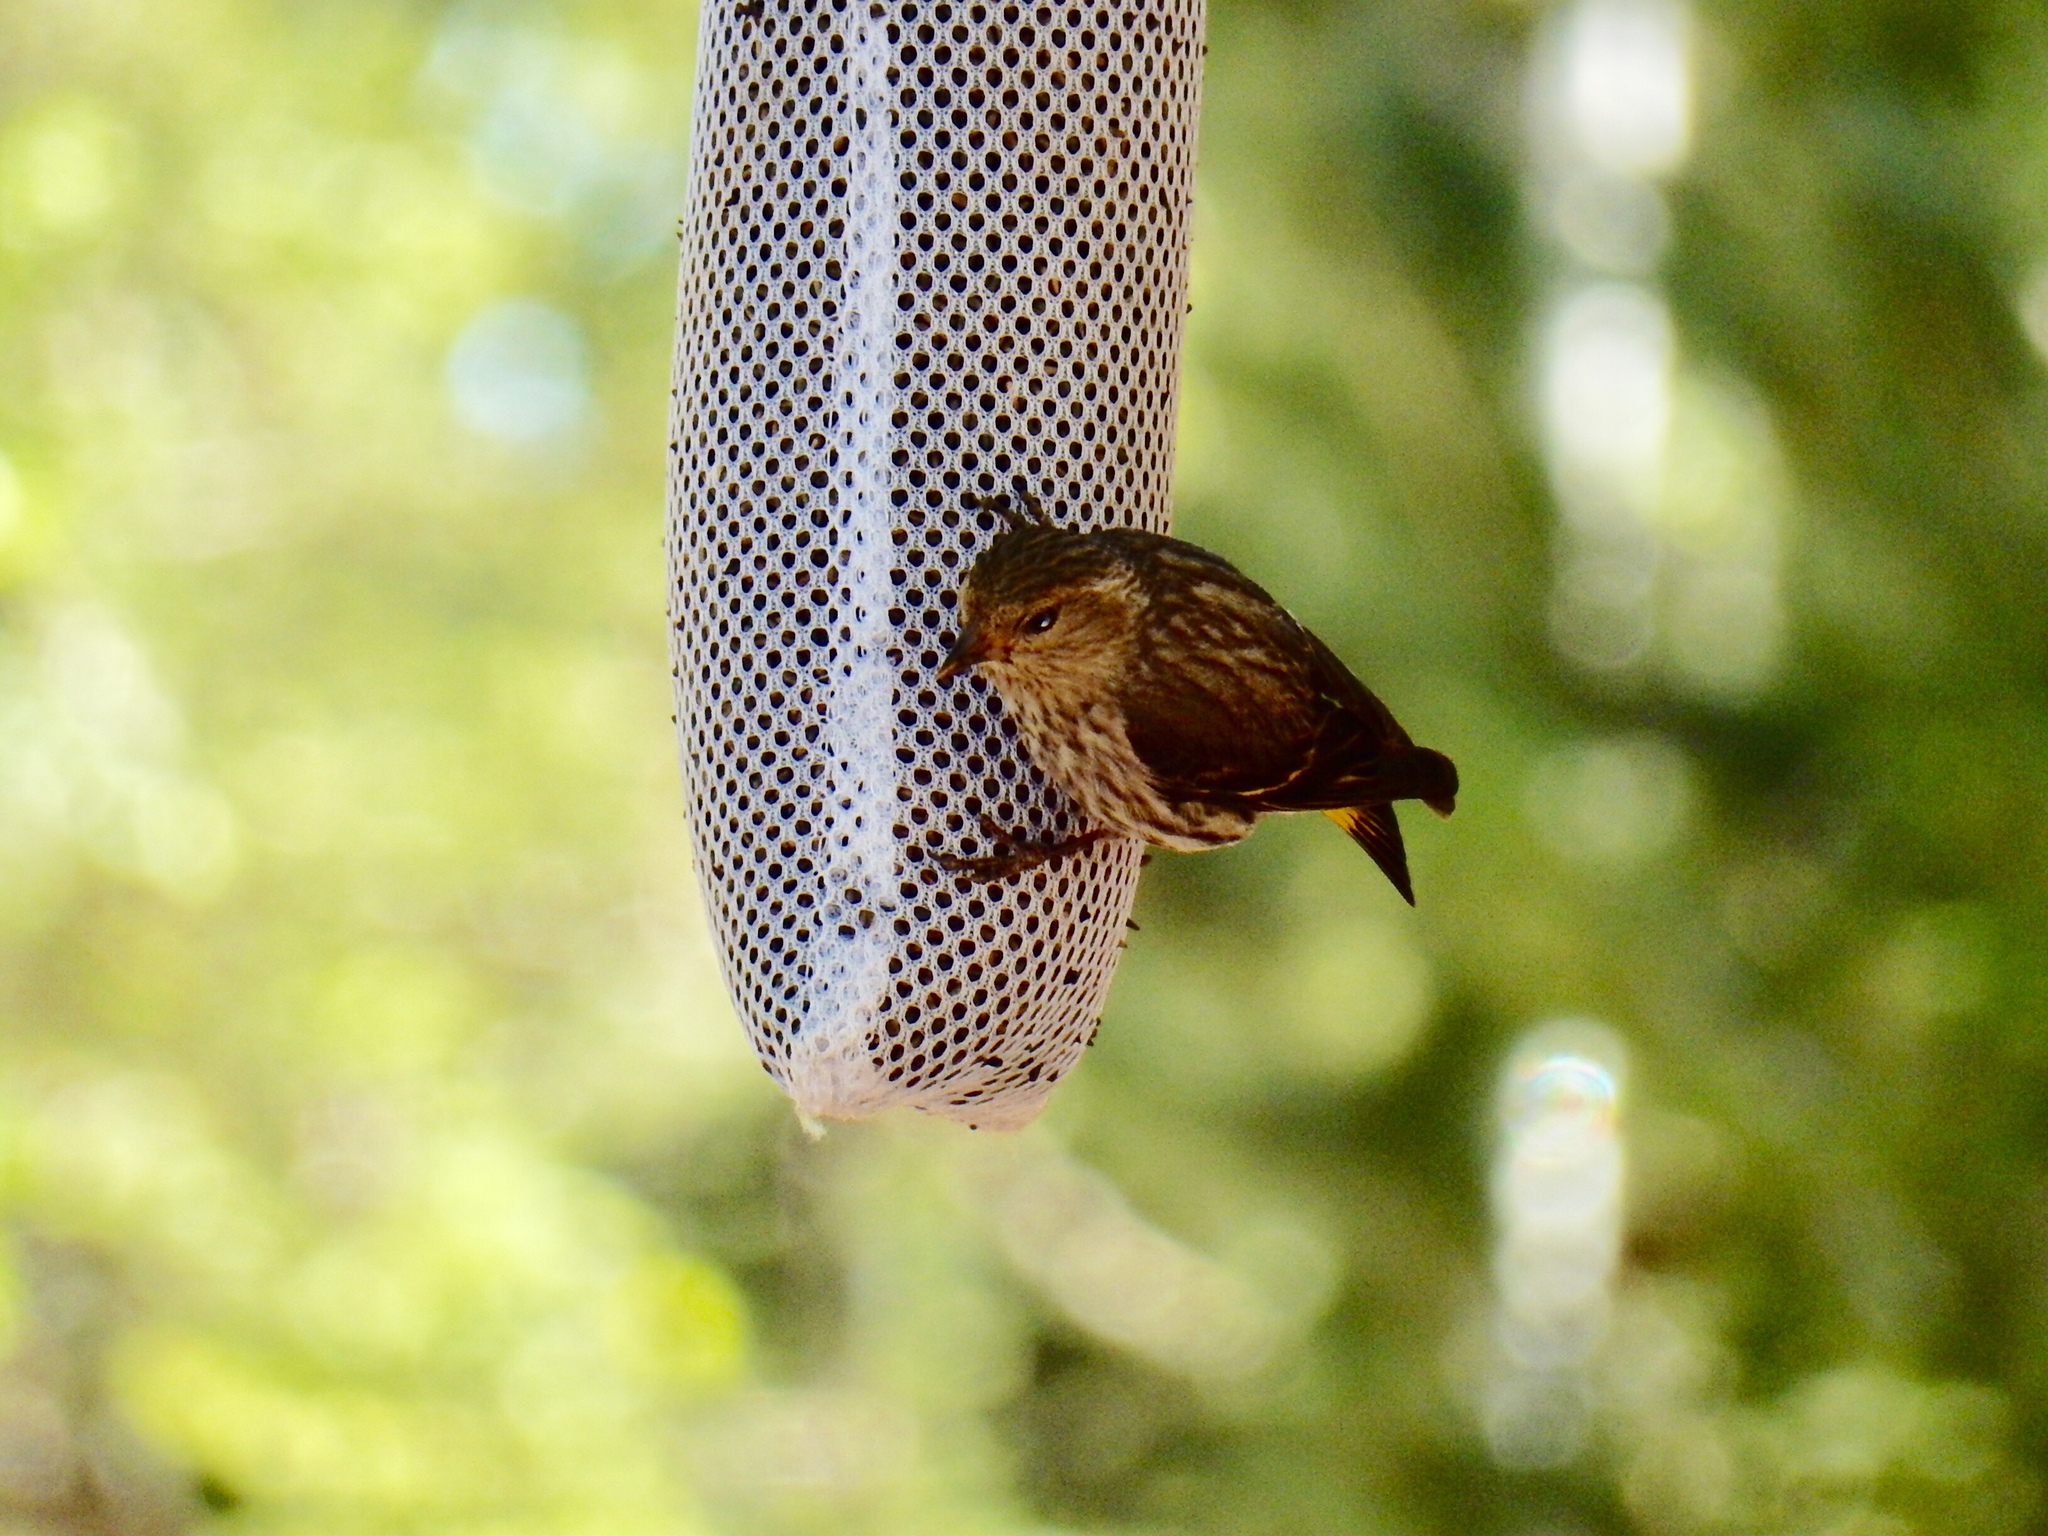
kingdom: Animalia
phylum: Chordata
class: Aves
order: Passeriformes
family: Fringillidae
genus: Spinus
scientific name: Spinus pinus
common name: Pine siskin
